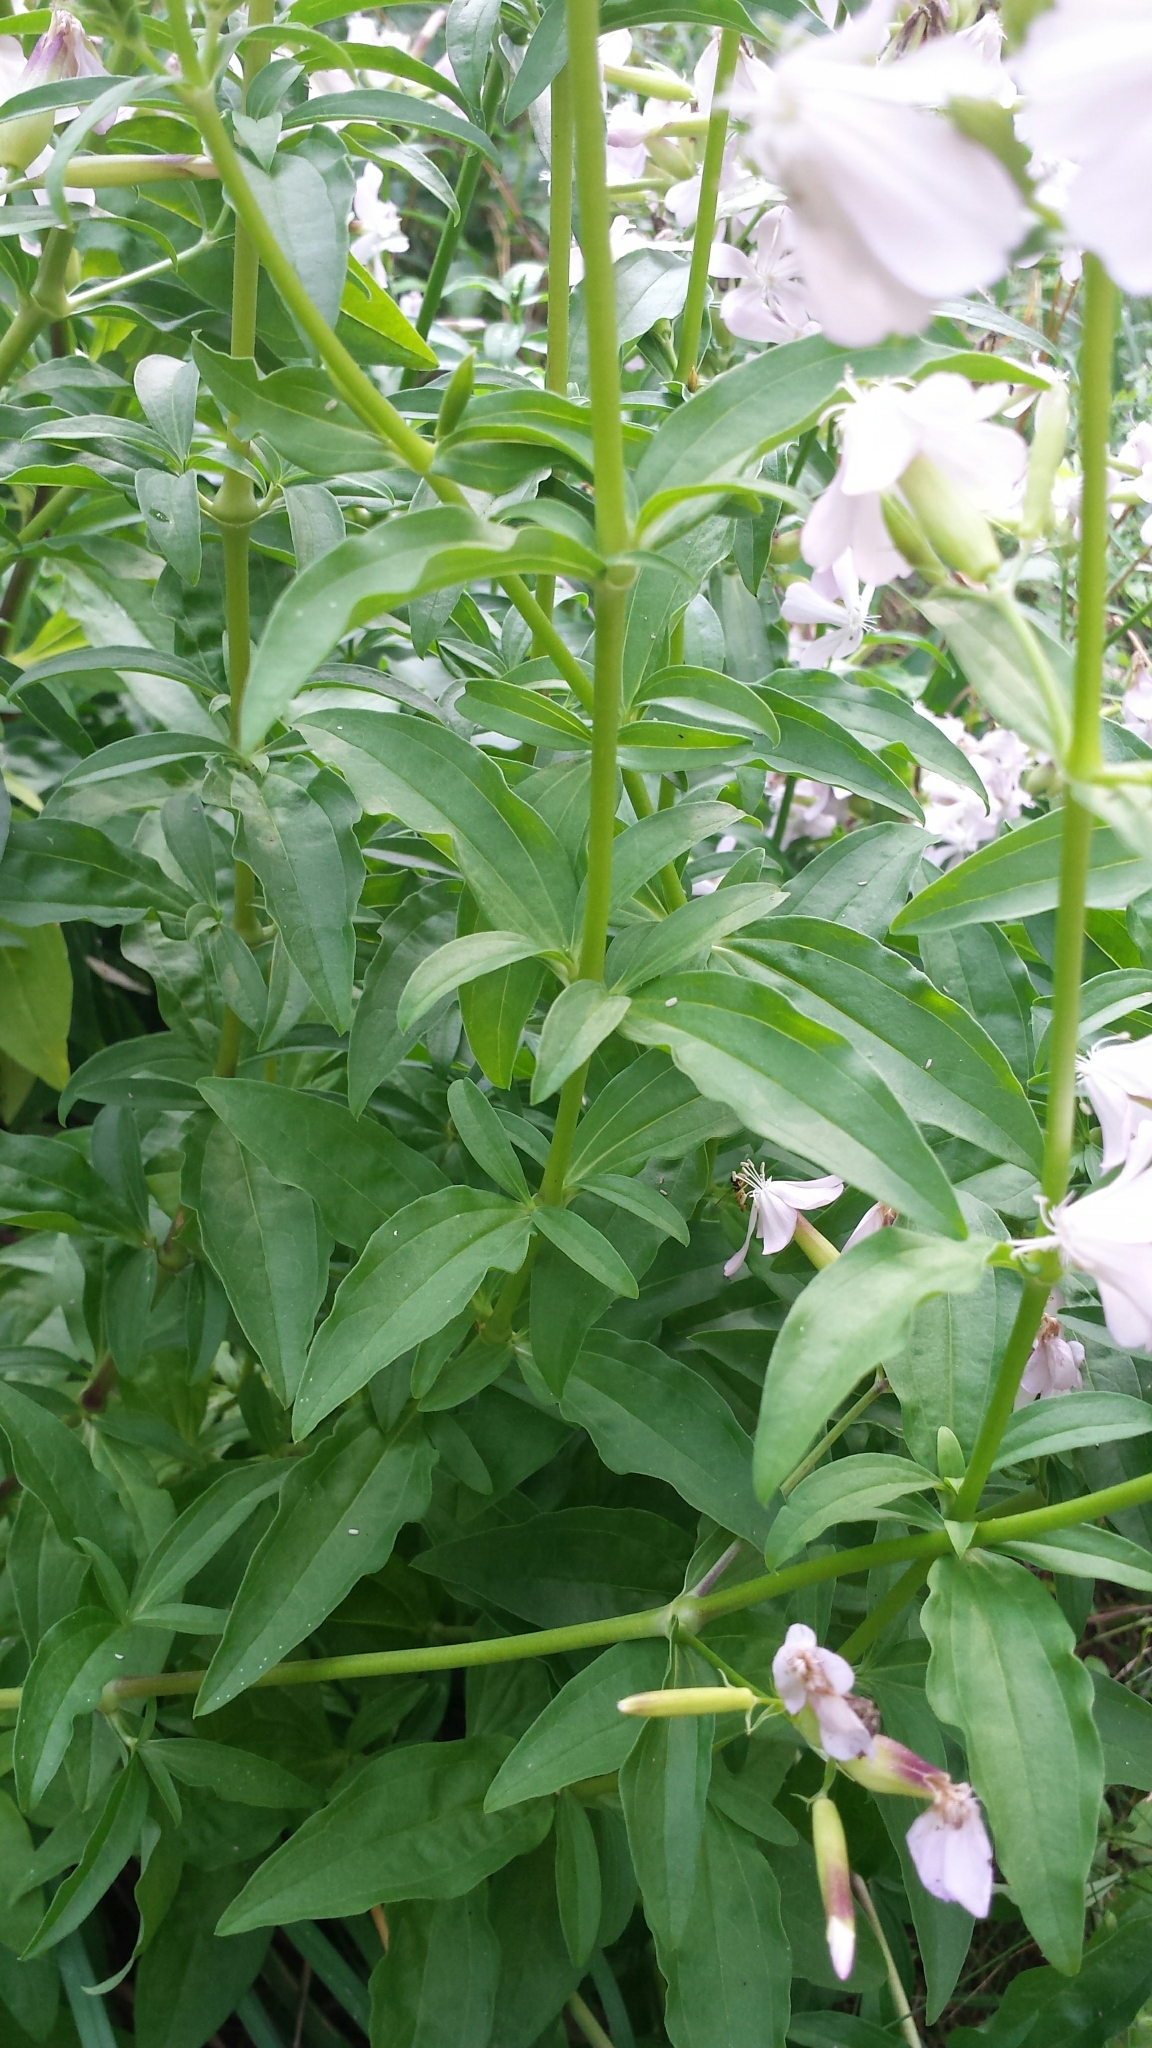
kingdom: Plantae
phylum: Tracheophyta
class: Magnoliopsida
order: Caryophyllales
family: Caryophyllaceae
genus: Saponaria
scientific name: Saponaria officinalis
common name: Soapwort
